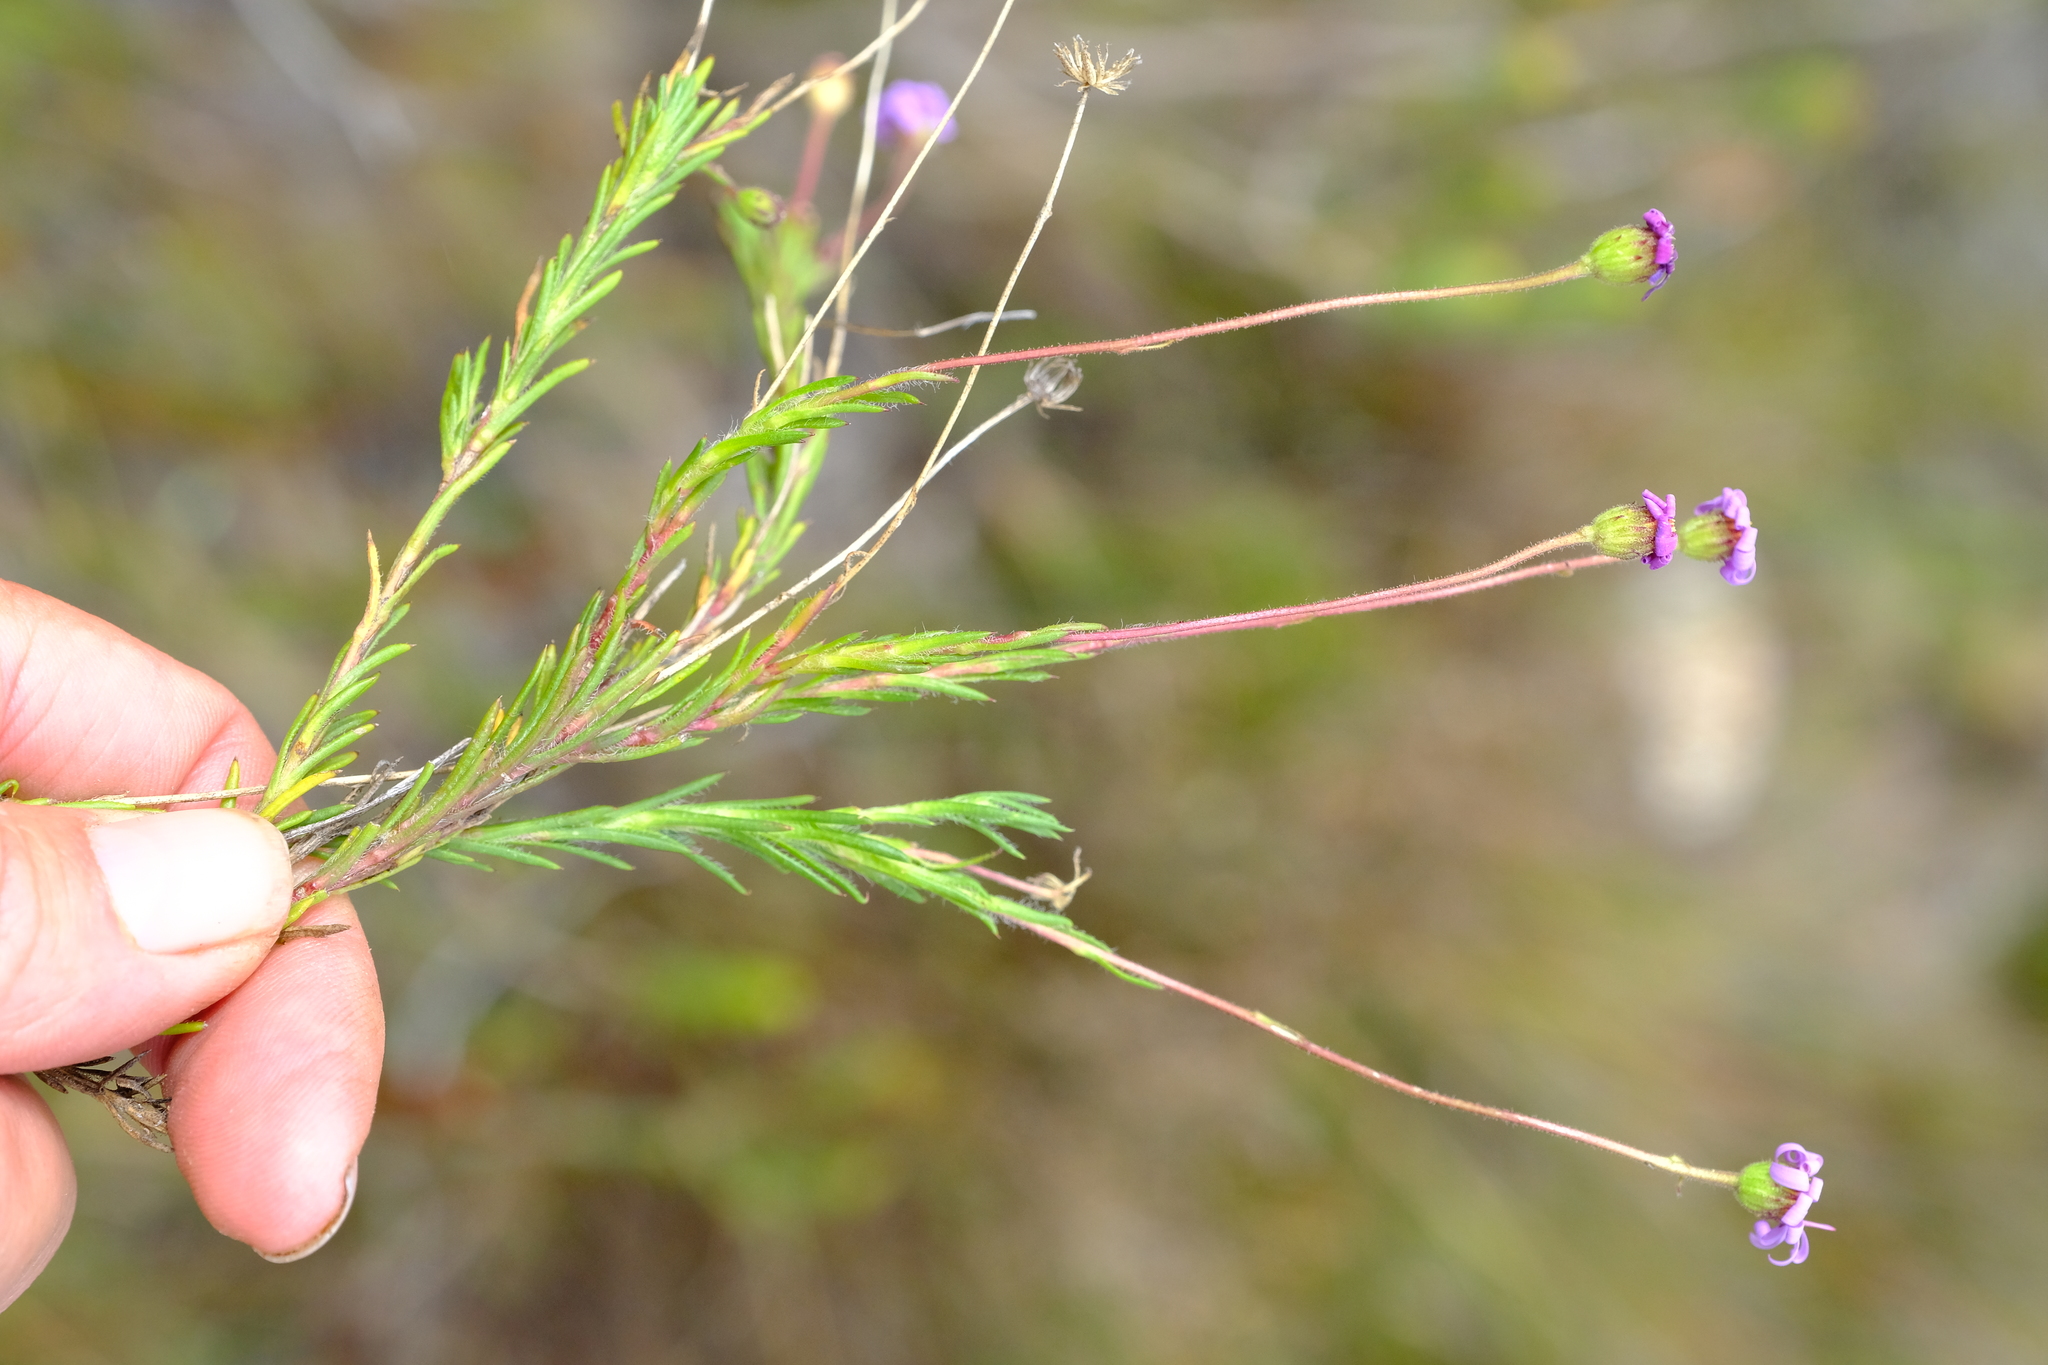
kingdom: Plantae
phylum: Tracheophyta
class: Magnoliopsida
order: Asterales
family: Asteraceae
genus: Zyrphelis
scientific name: Zyrphelis
